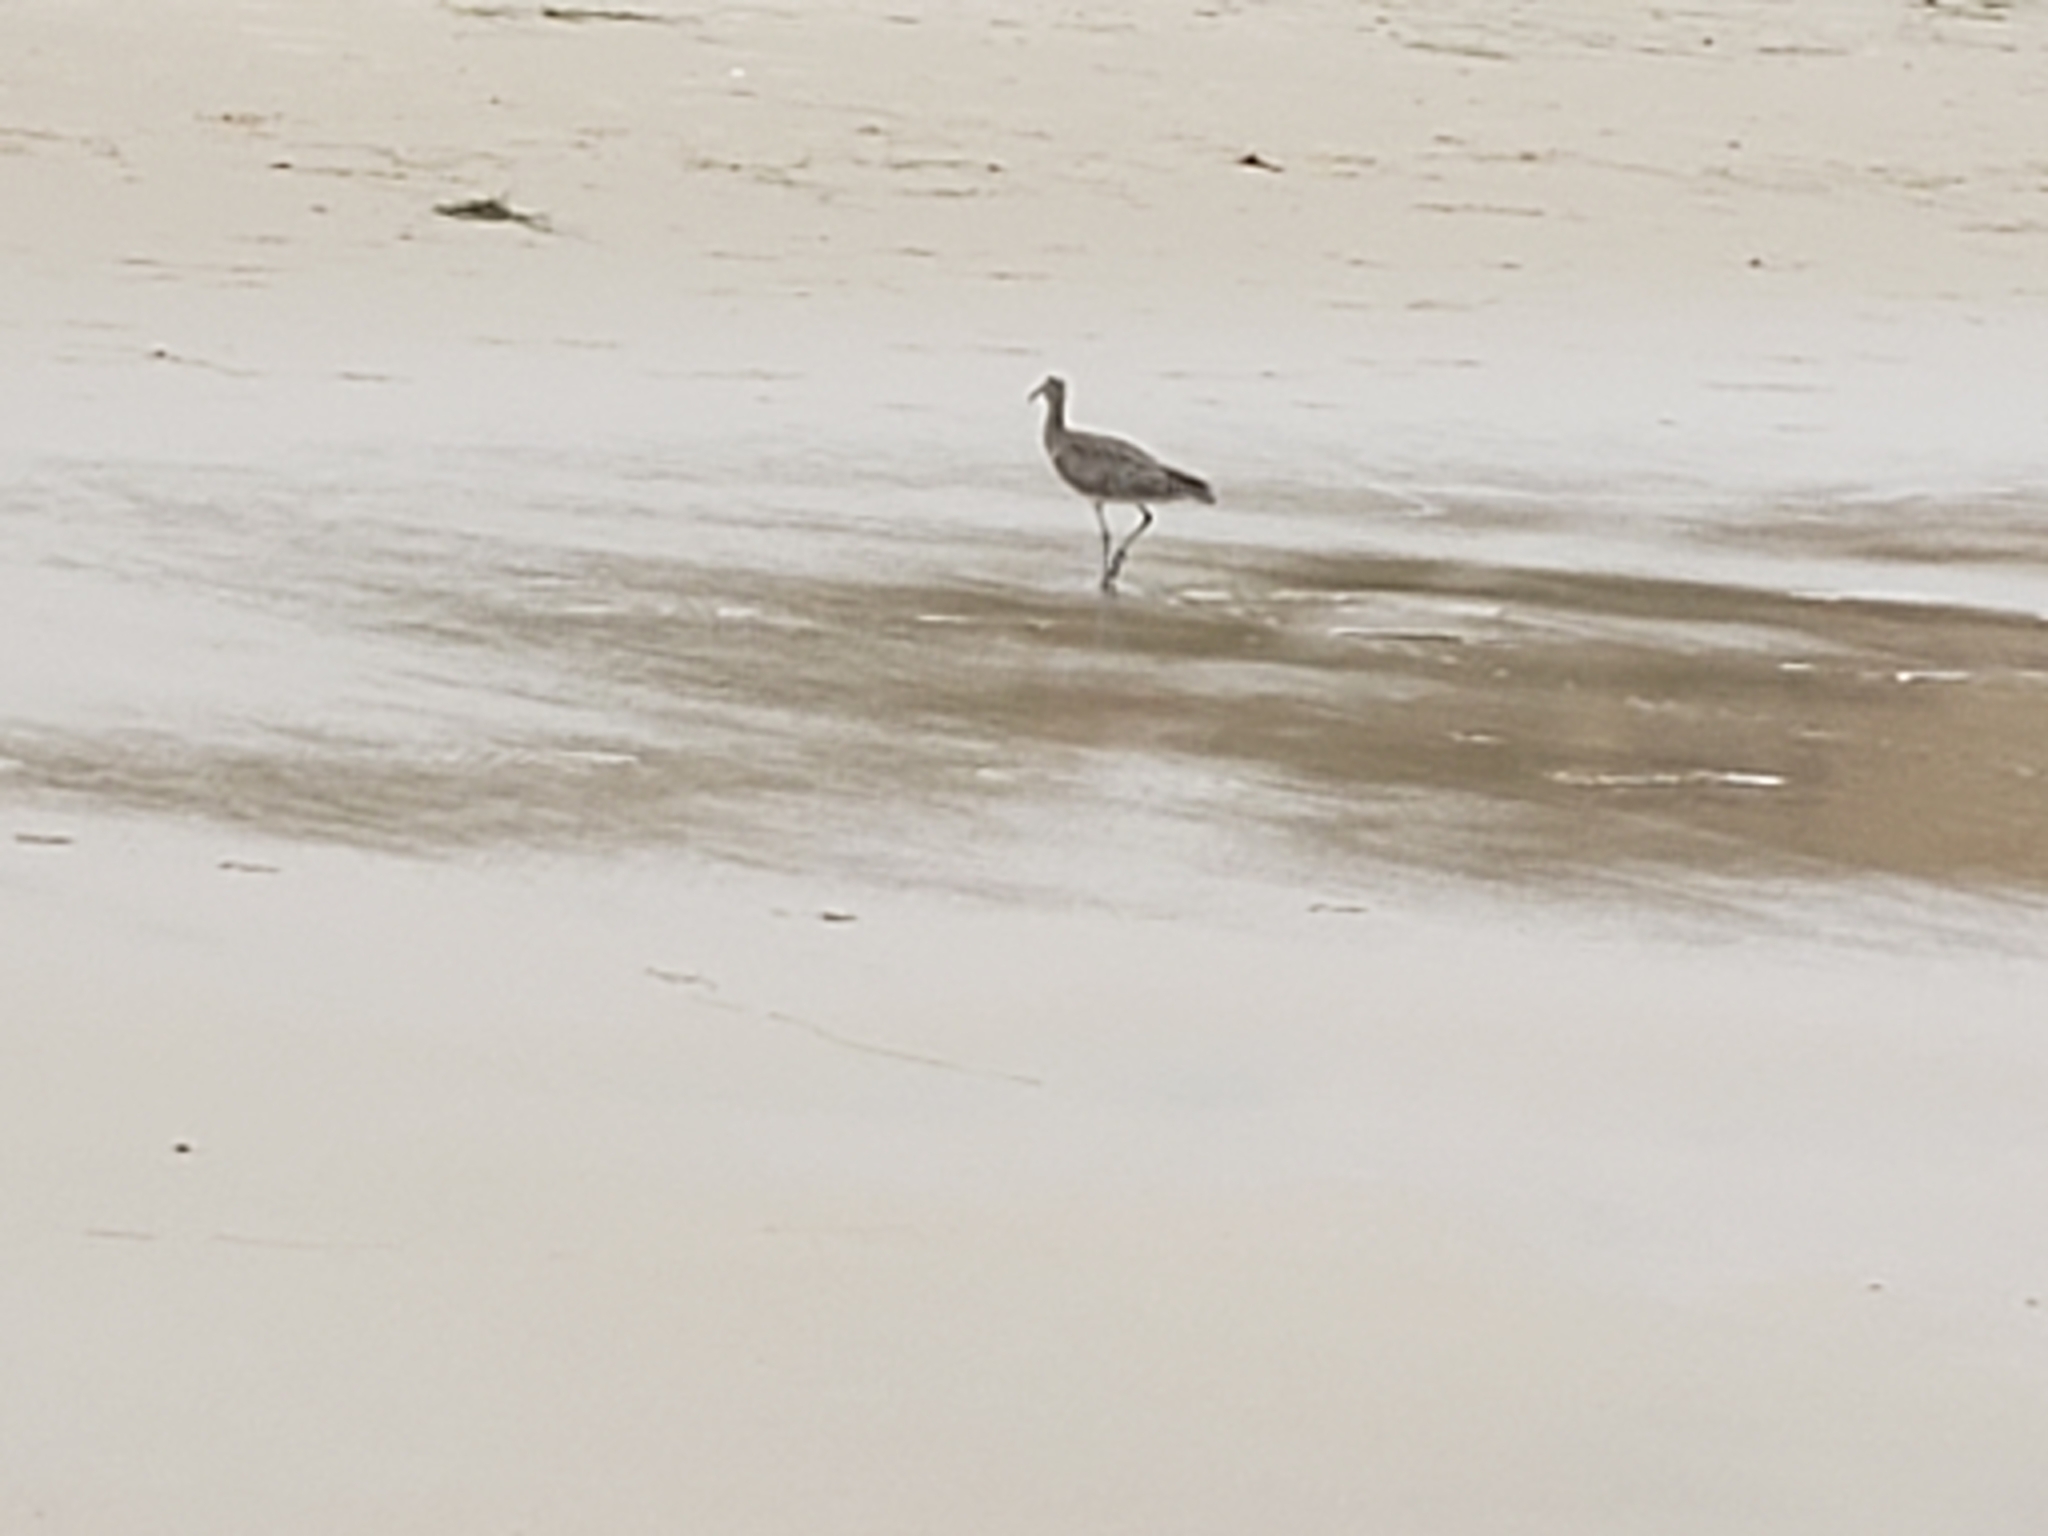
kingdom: Animalia
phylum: Chordata
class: Aves
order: Charadriiformes
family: Scolopacidae
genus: Numenius
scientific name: Numenius phaeopus
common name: Whimbrel
